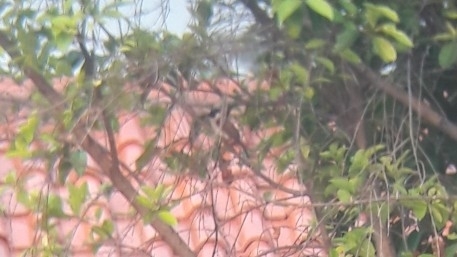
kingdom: Animalia
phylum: Chordata
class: Aves
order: Passeriformes
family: Pycnonotidae
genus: Pycnonotus
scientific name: Pycnonotus aurigaster
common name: Sooty-headed bulbul
